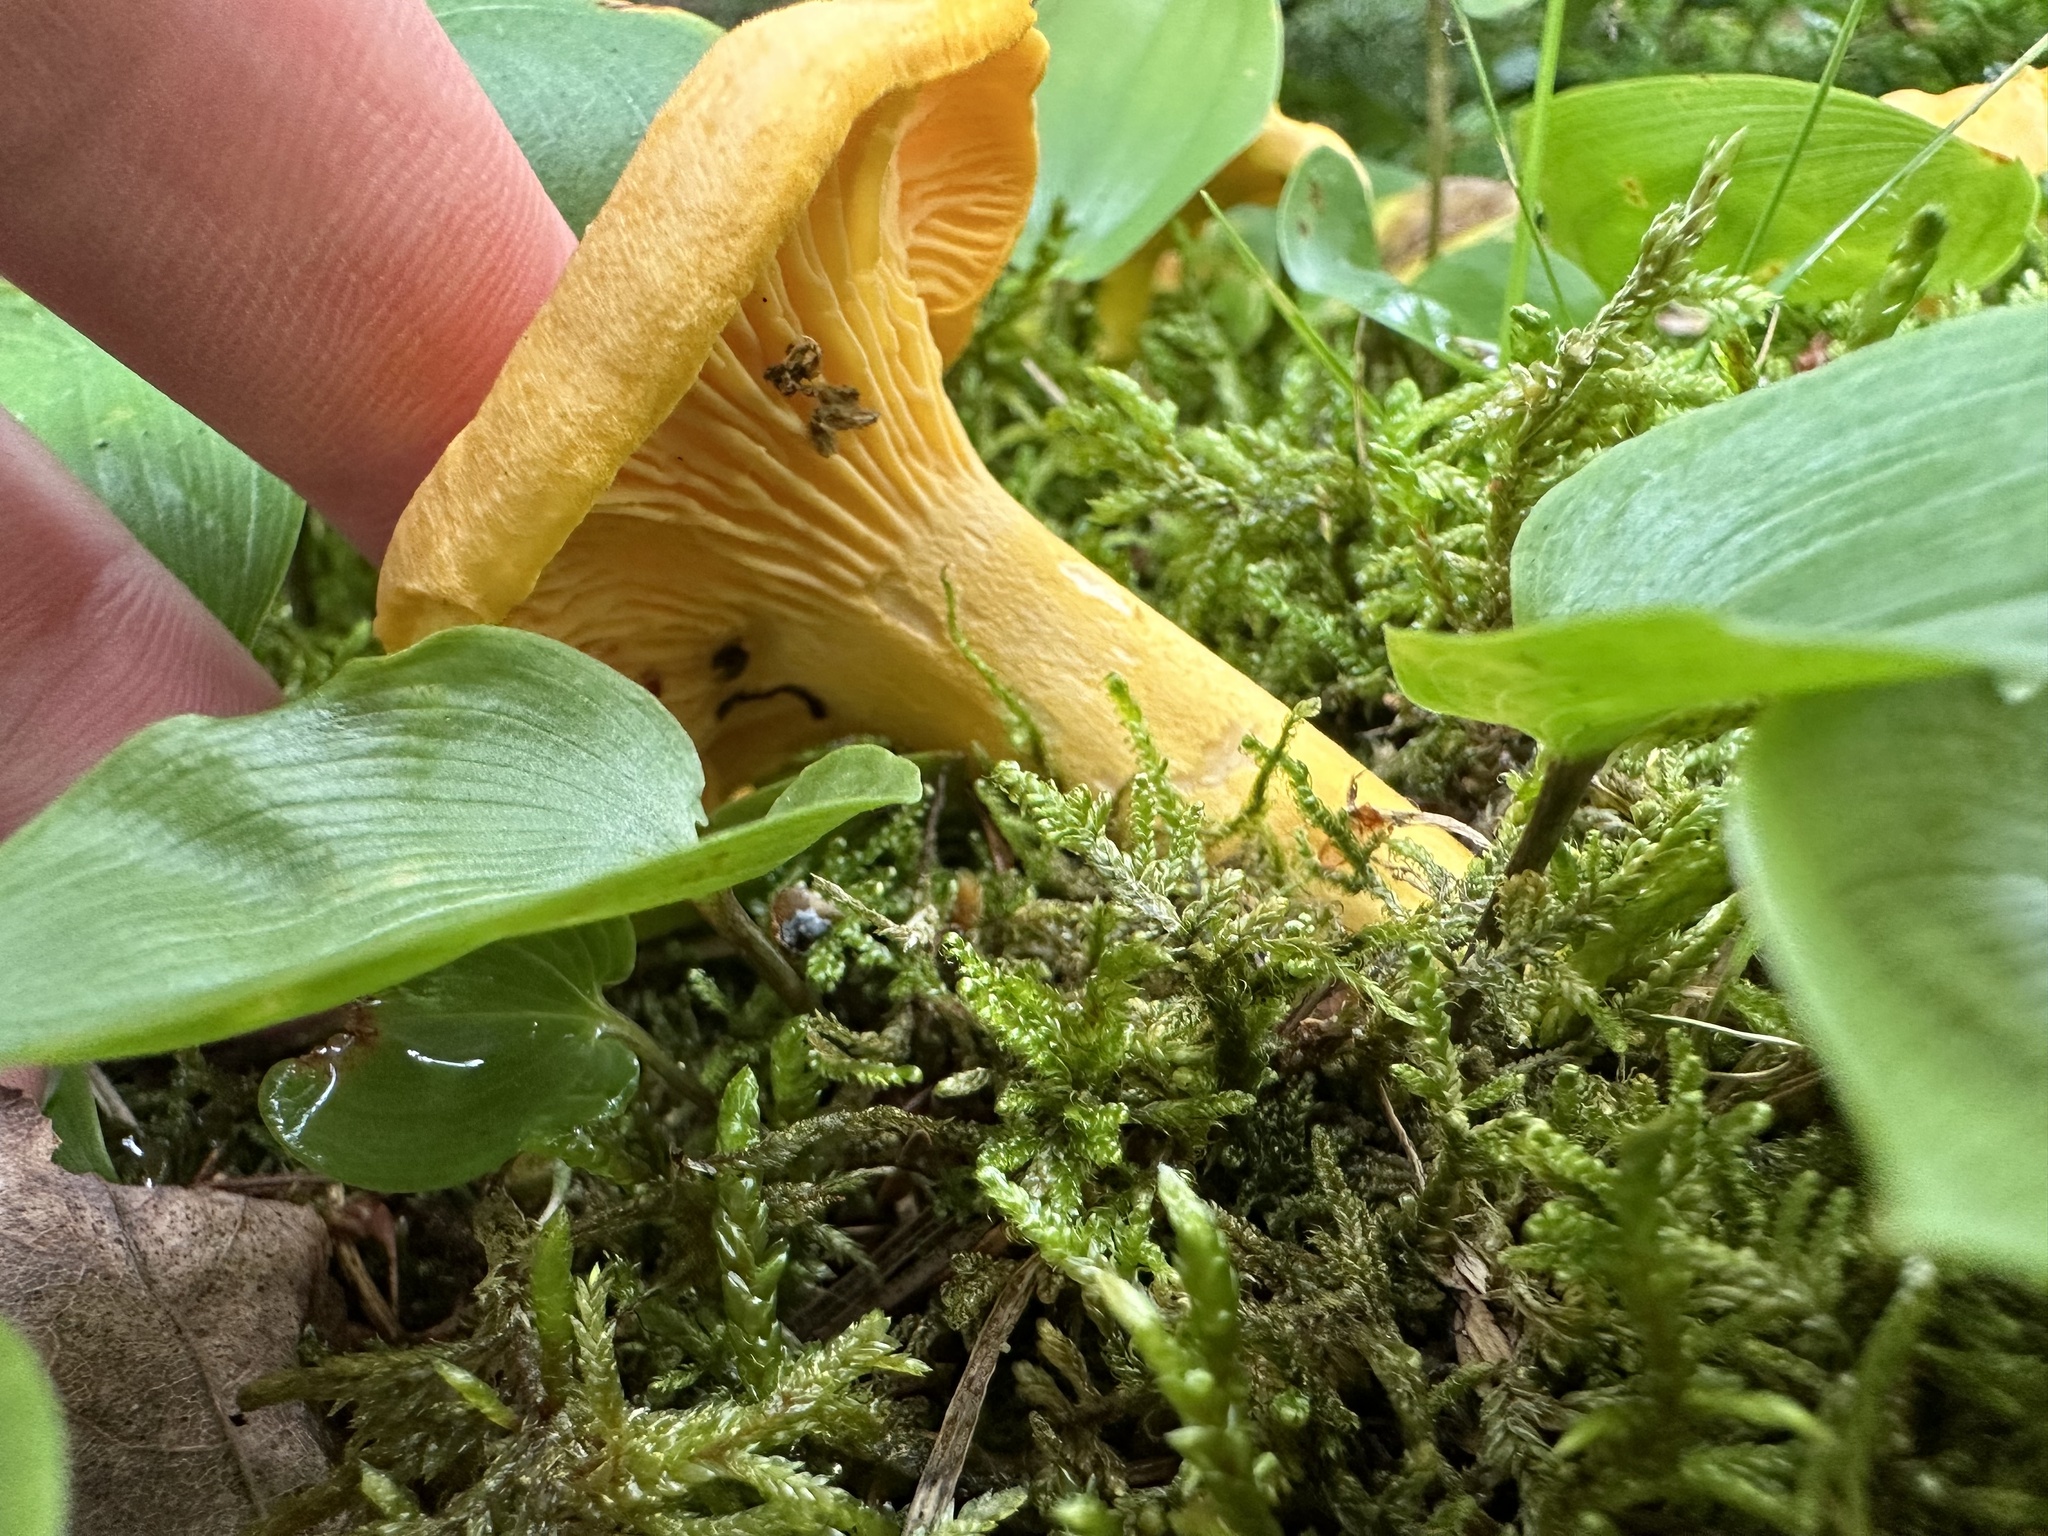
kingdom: Fungi
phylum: Basidiomycota
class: Agaricomycetes
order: Cantharellales
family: Hydnaceae
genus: Cantharellus
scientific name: Cantharellus enelensis
